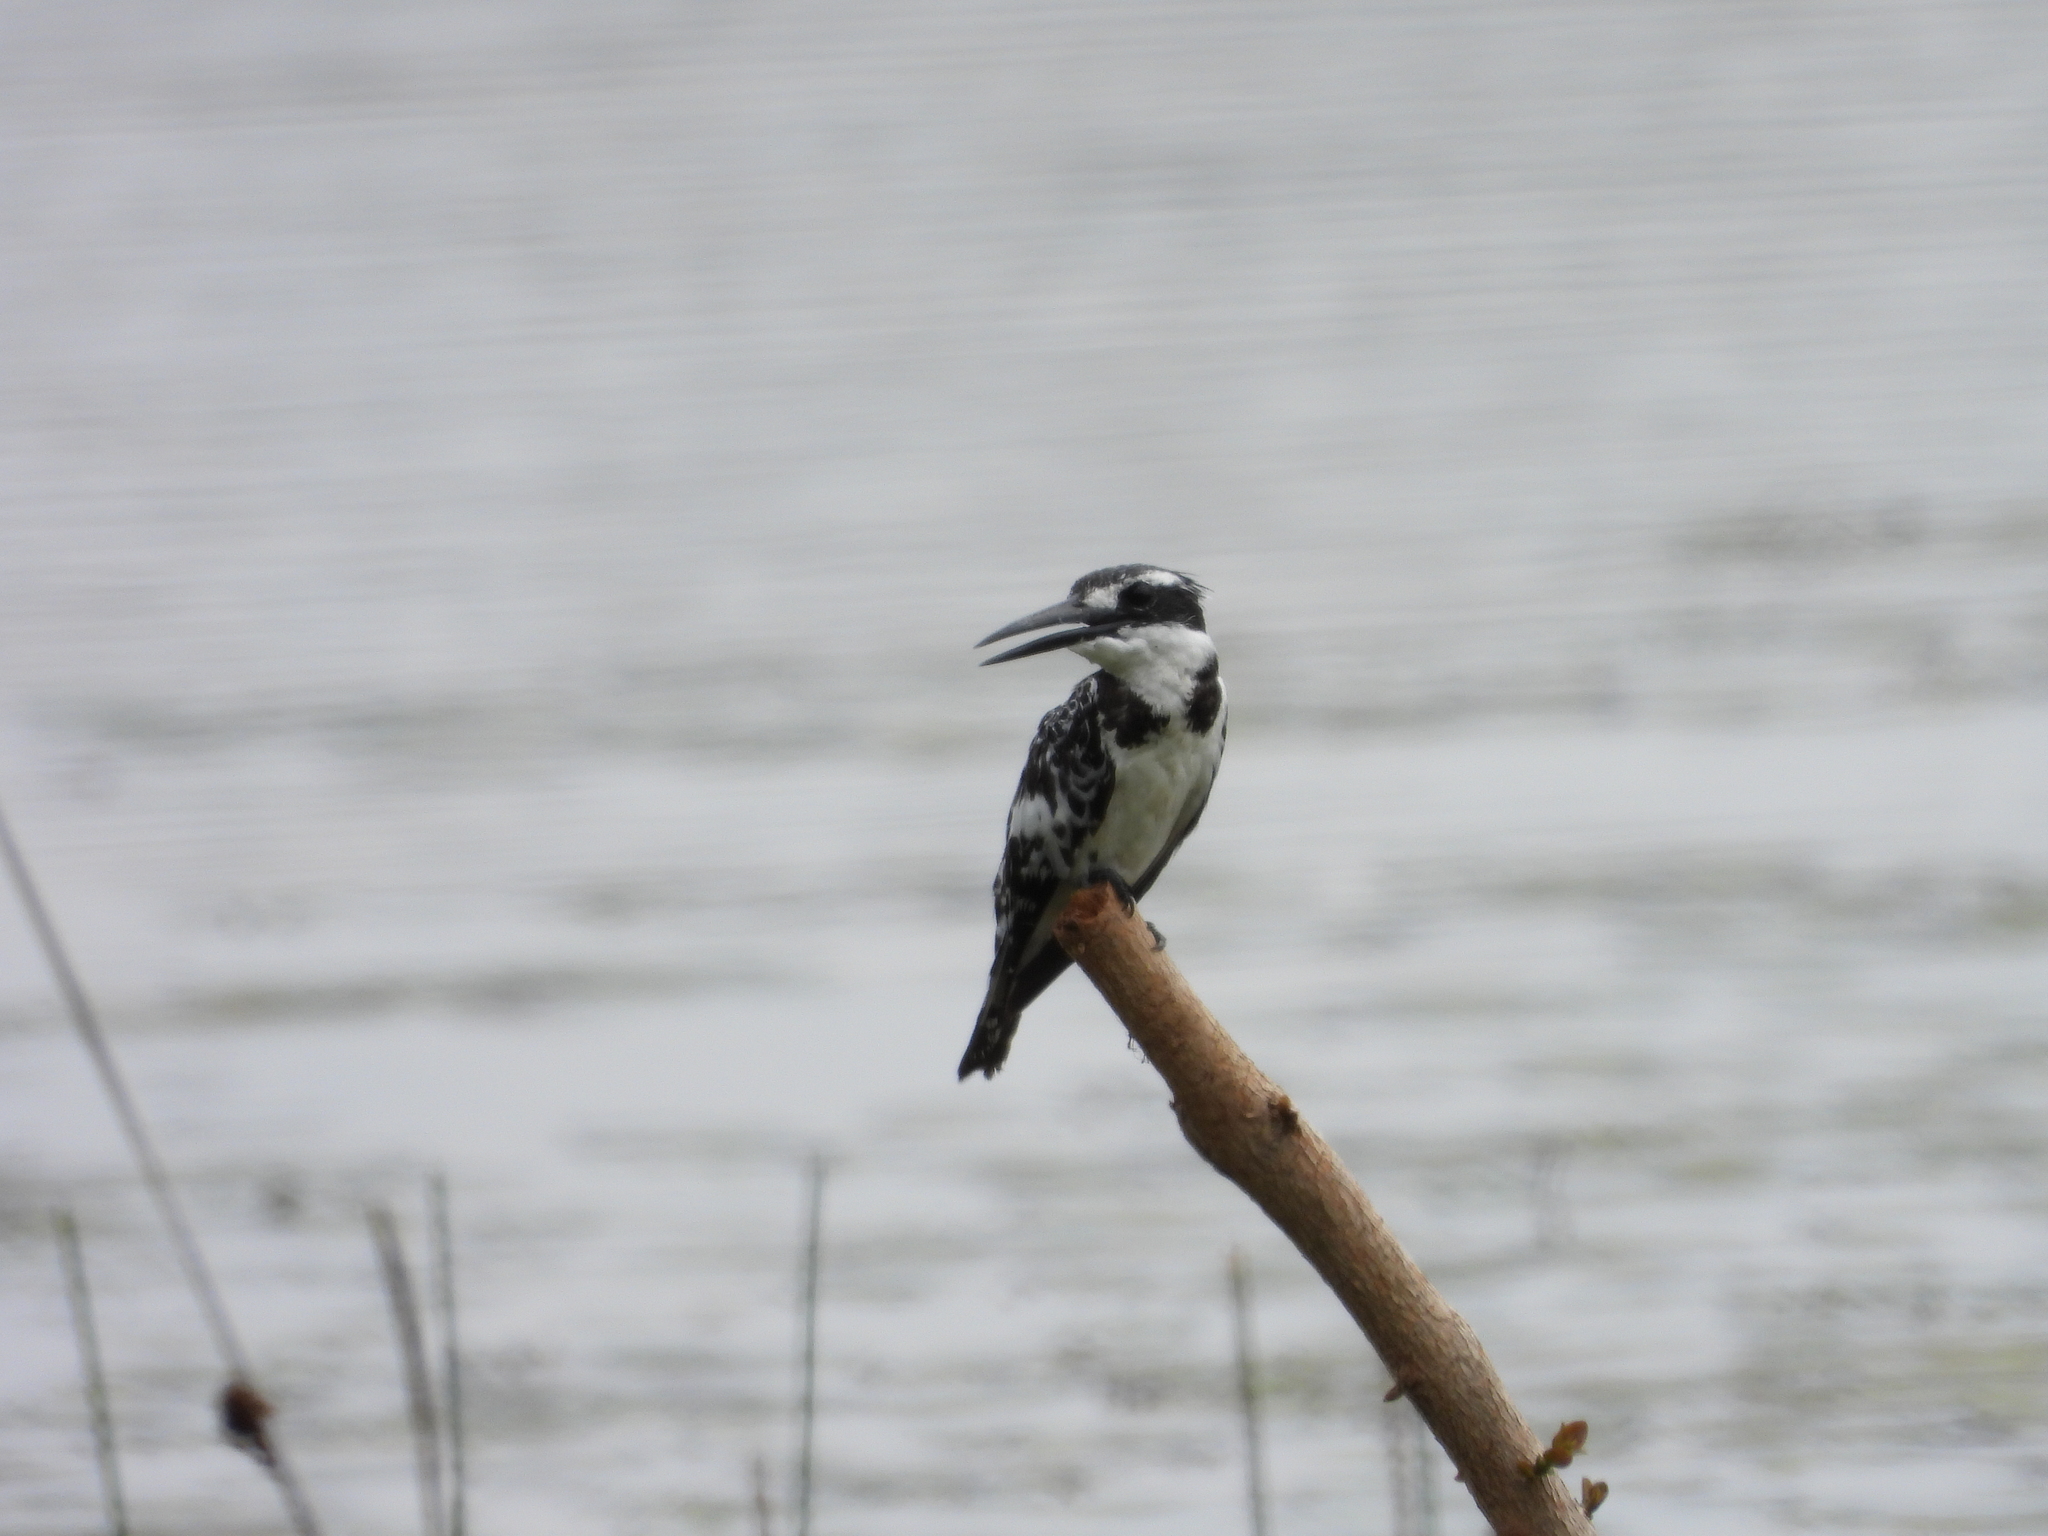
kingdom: Animalia
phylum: Chordata
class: Aves
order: Coraciiformes
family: Alcedinidae
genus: Ceryle
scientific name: Ceryle rudis
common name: Pied kingfisher
